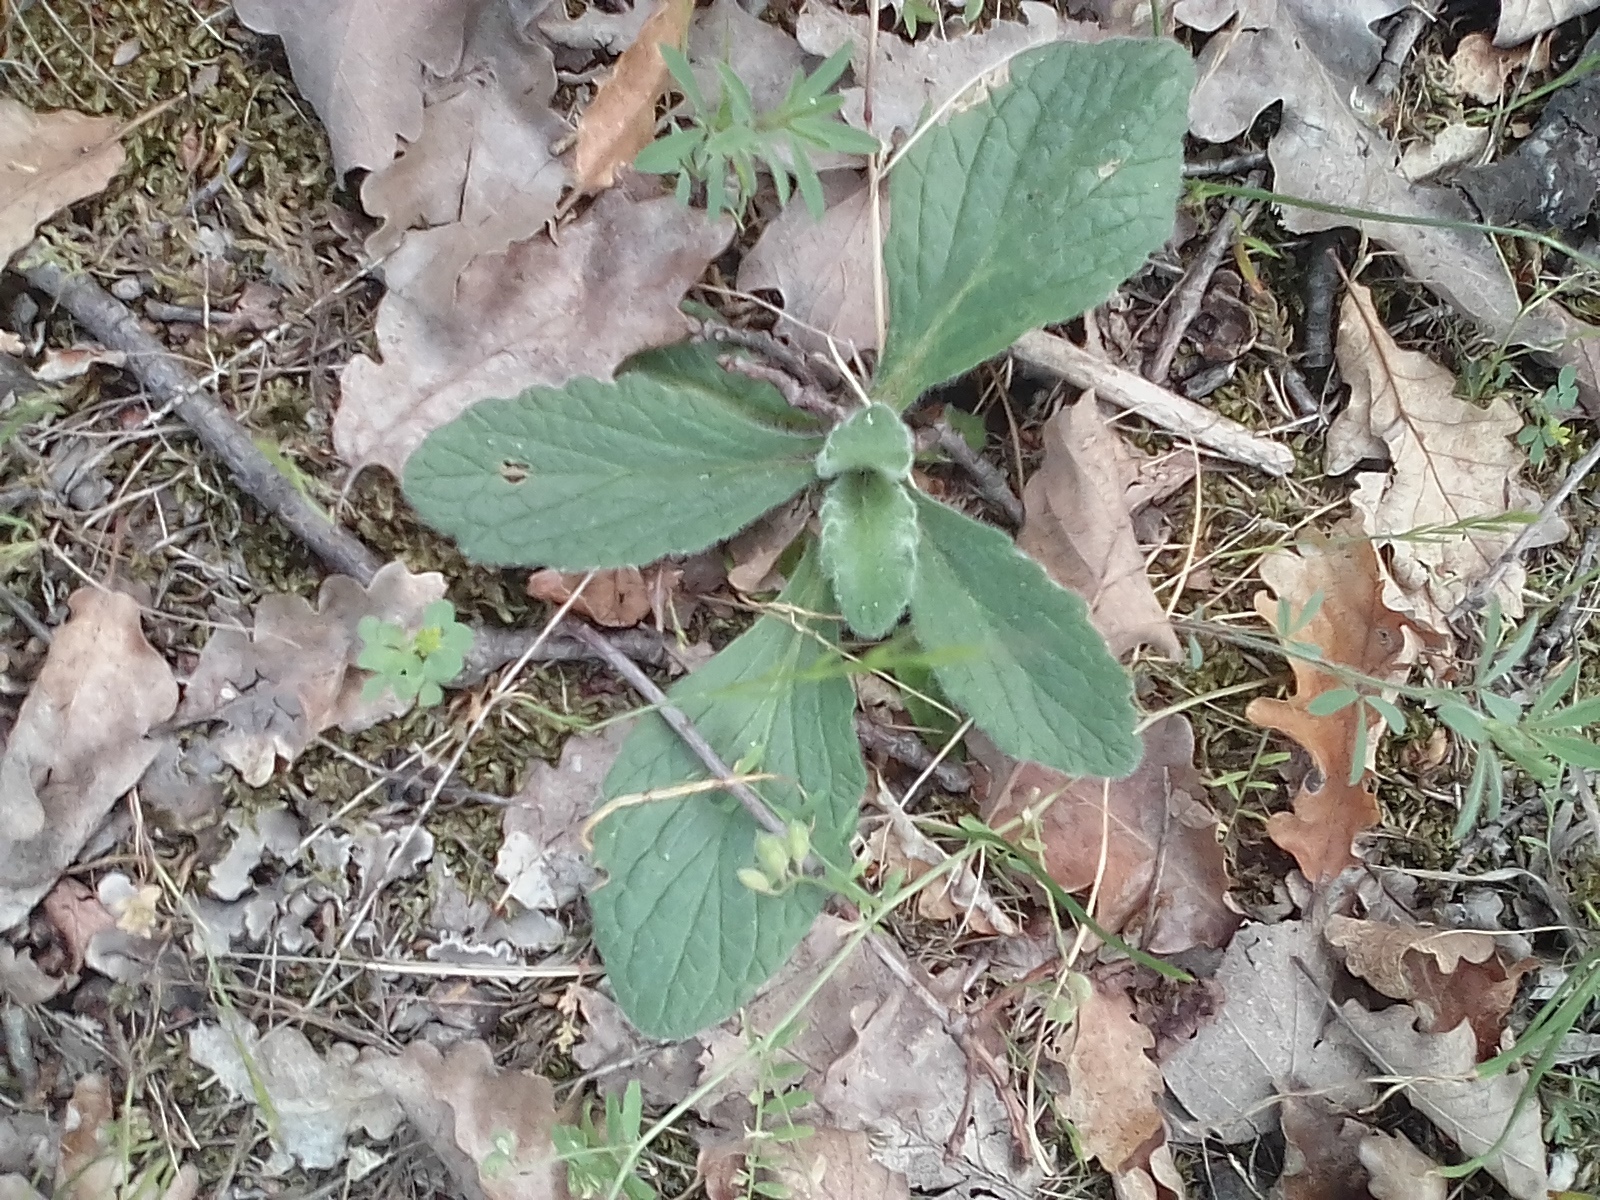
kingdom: Plantae
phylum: Tracheophyta
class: Magnoliopsida
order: Lamiales
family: Lamiaceae
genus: Ajuga
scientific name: Ajuga orientalis
